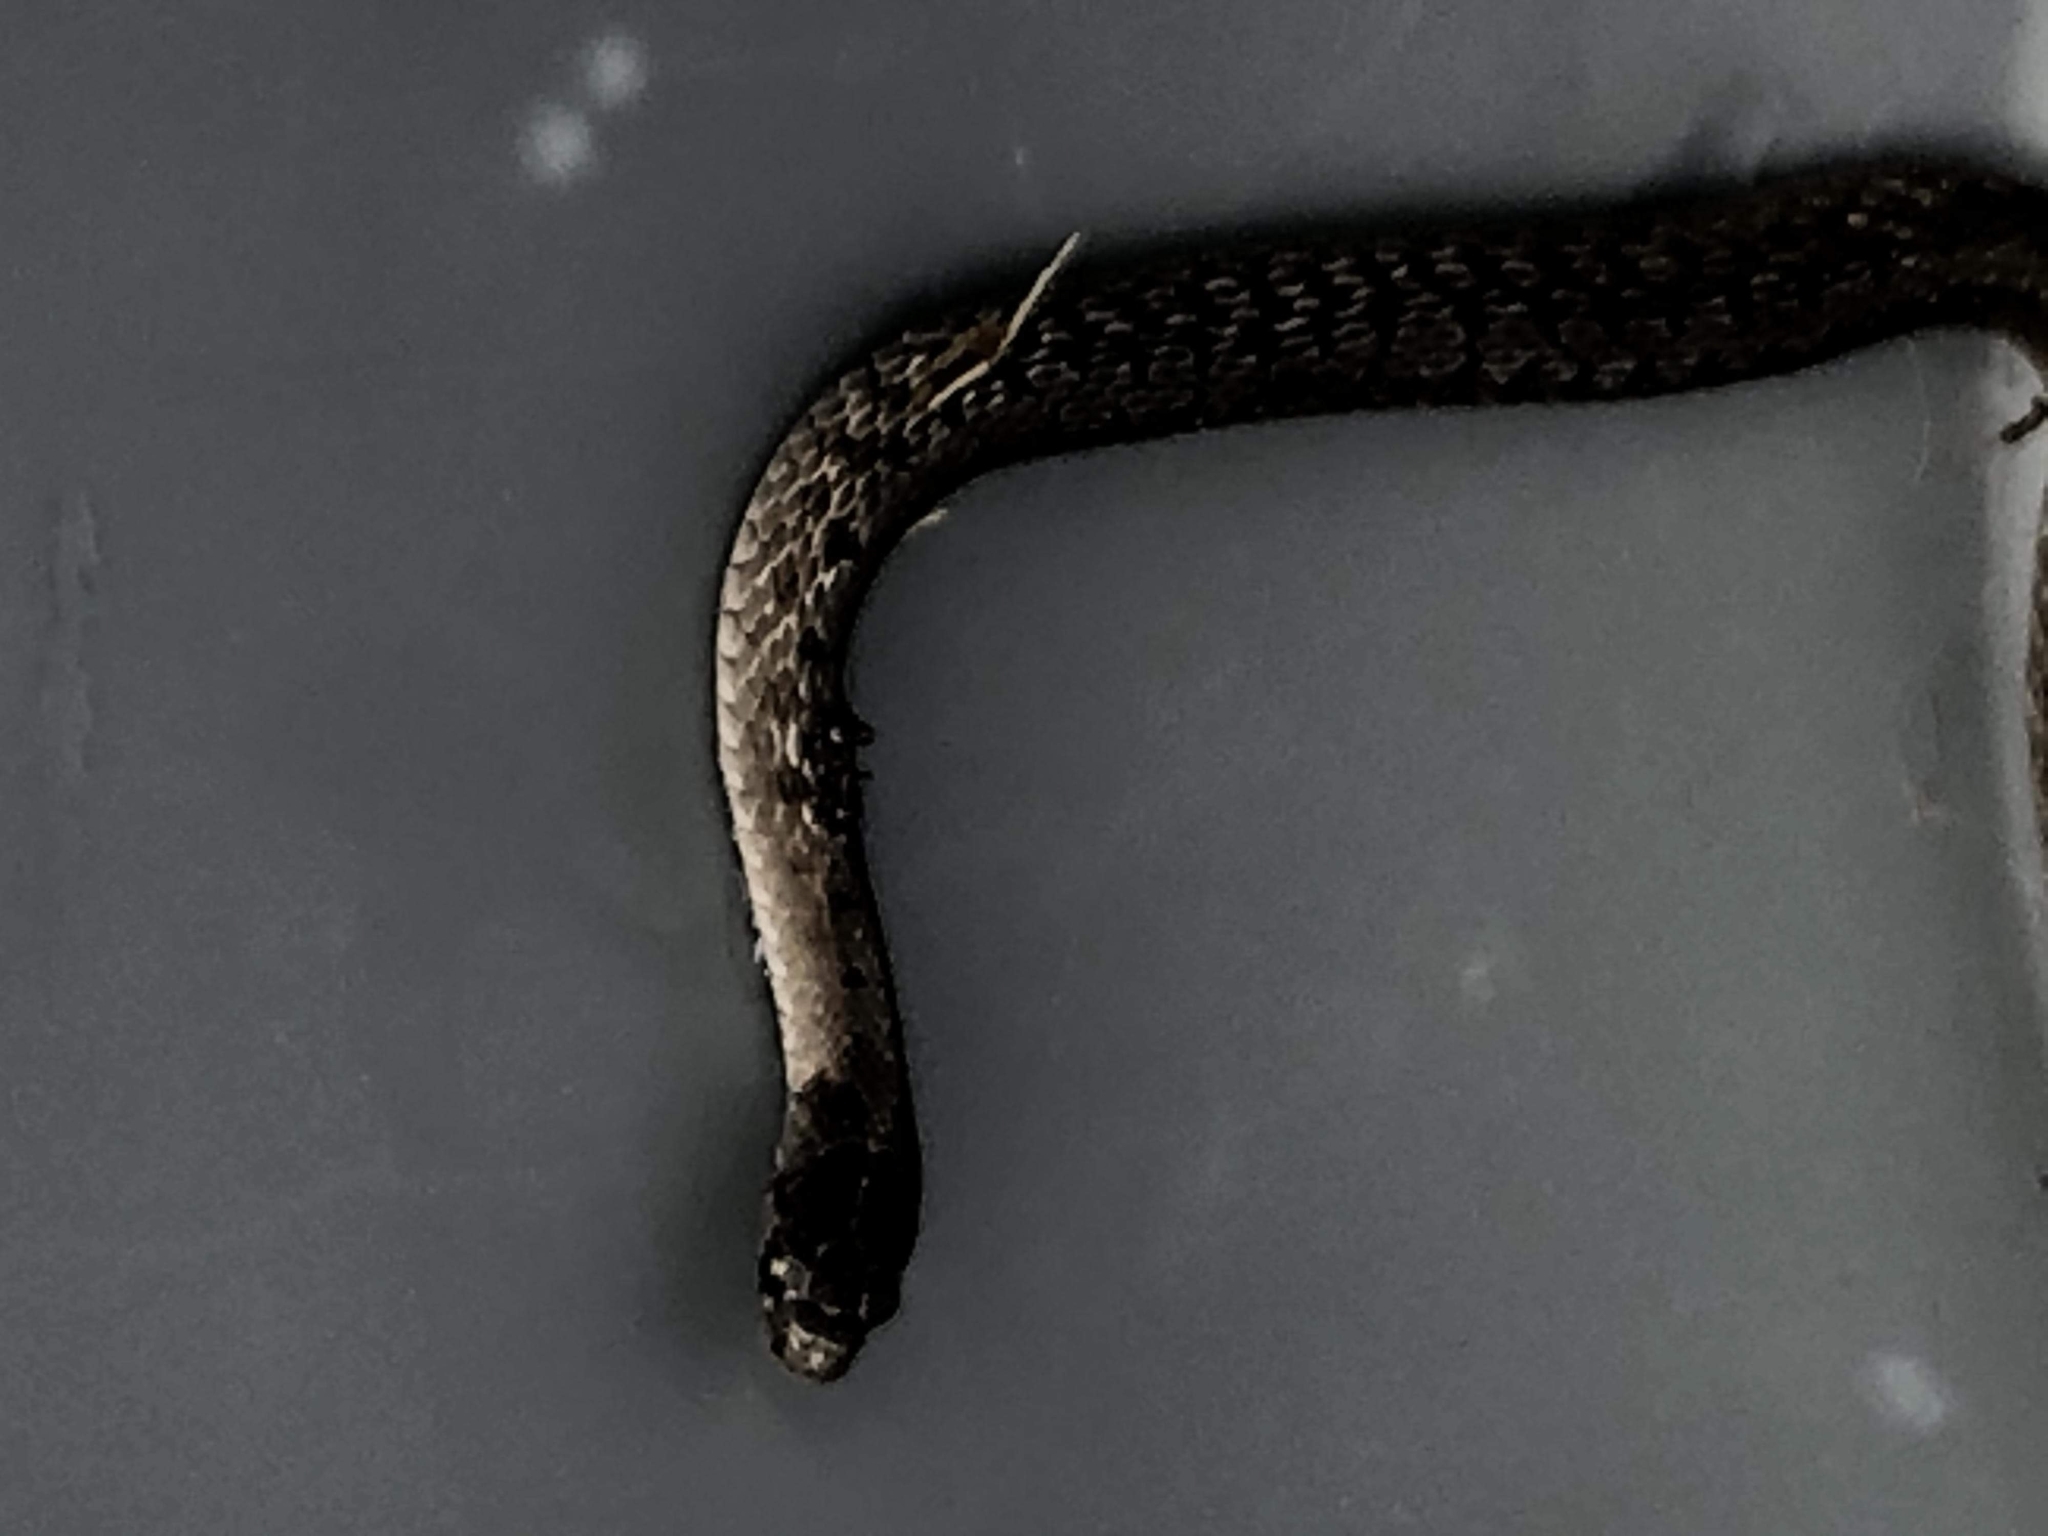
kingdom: Animalia
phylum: Chordata
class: Squamata
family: Colubridae
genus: Storeria
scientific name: Storeria dekayi
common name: (dekay’s) brown snake
